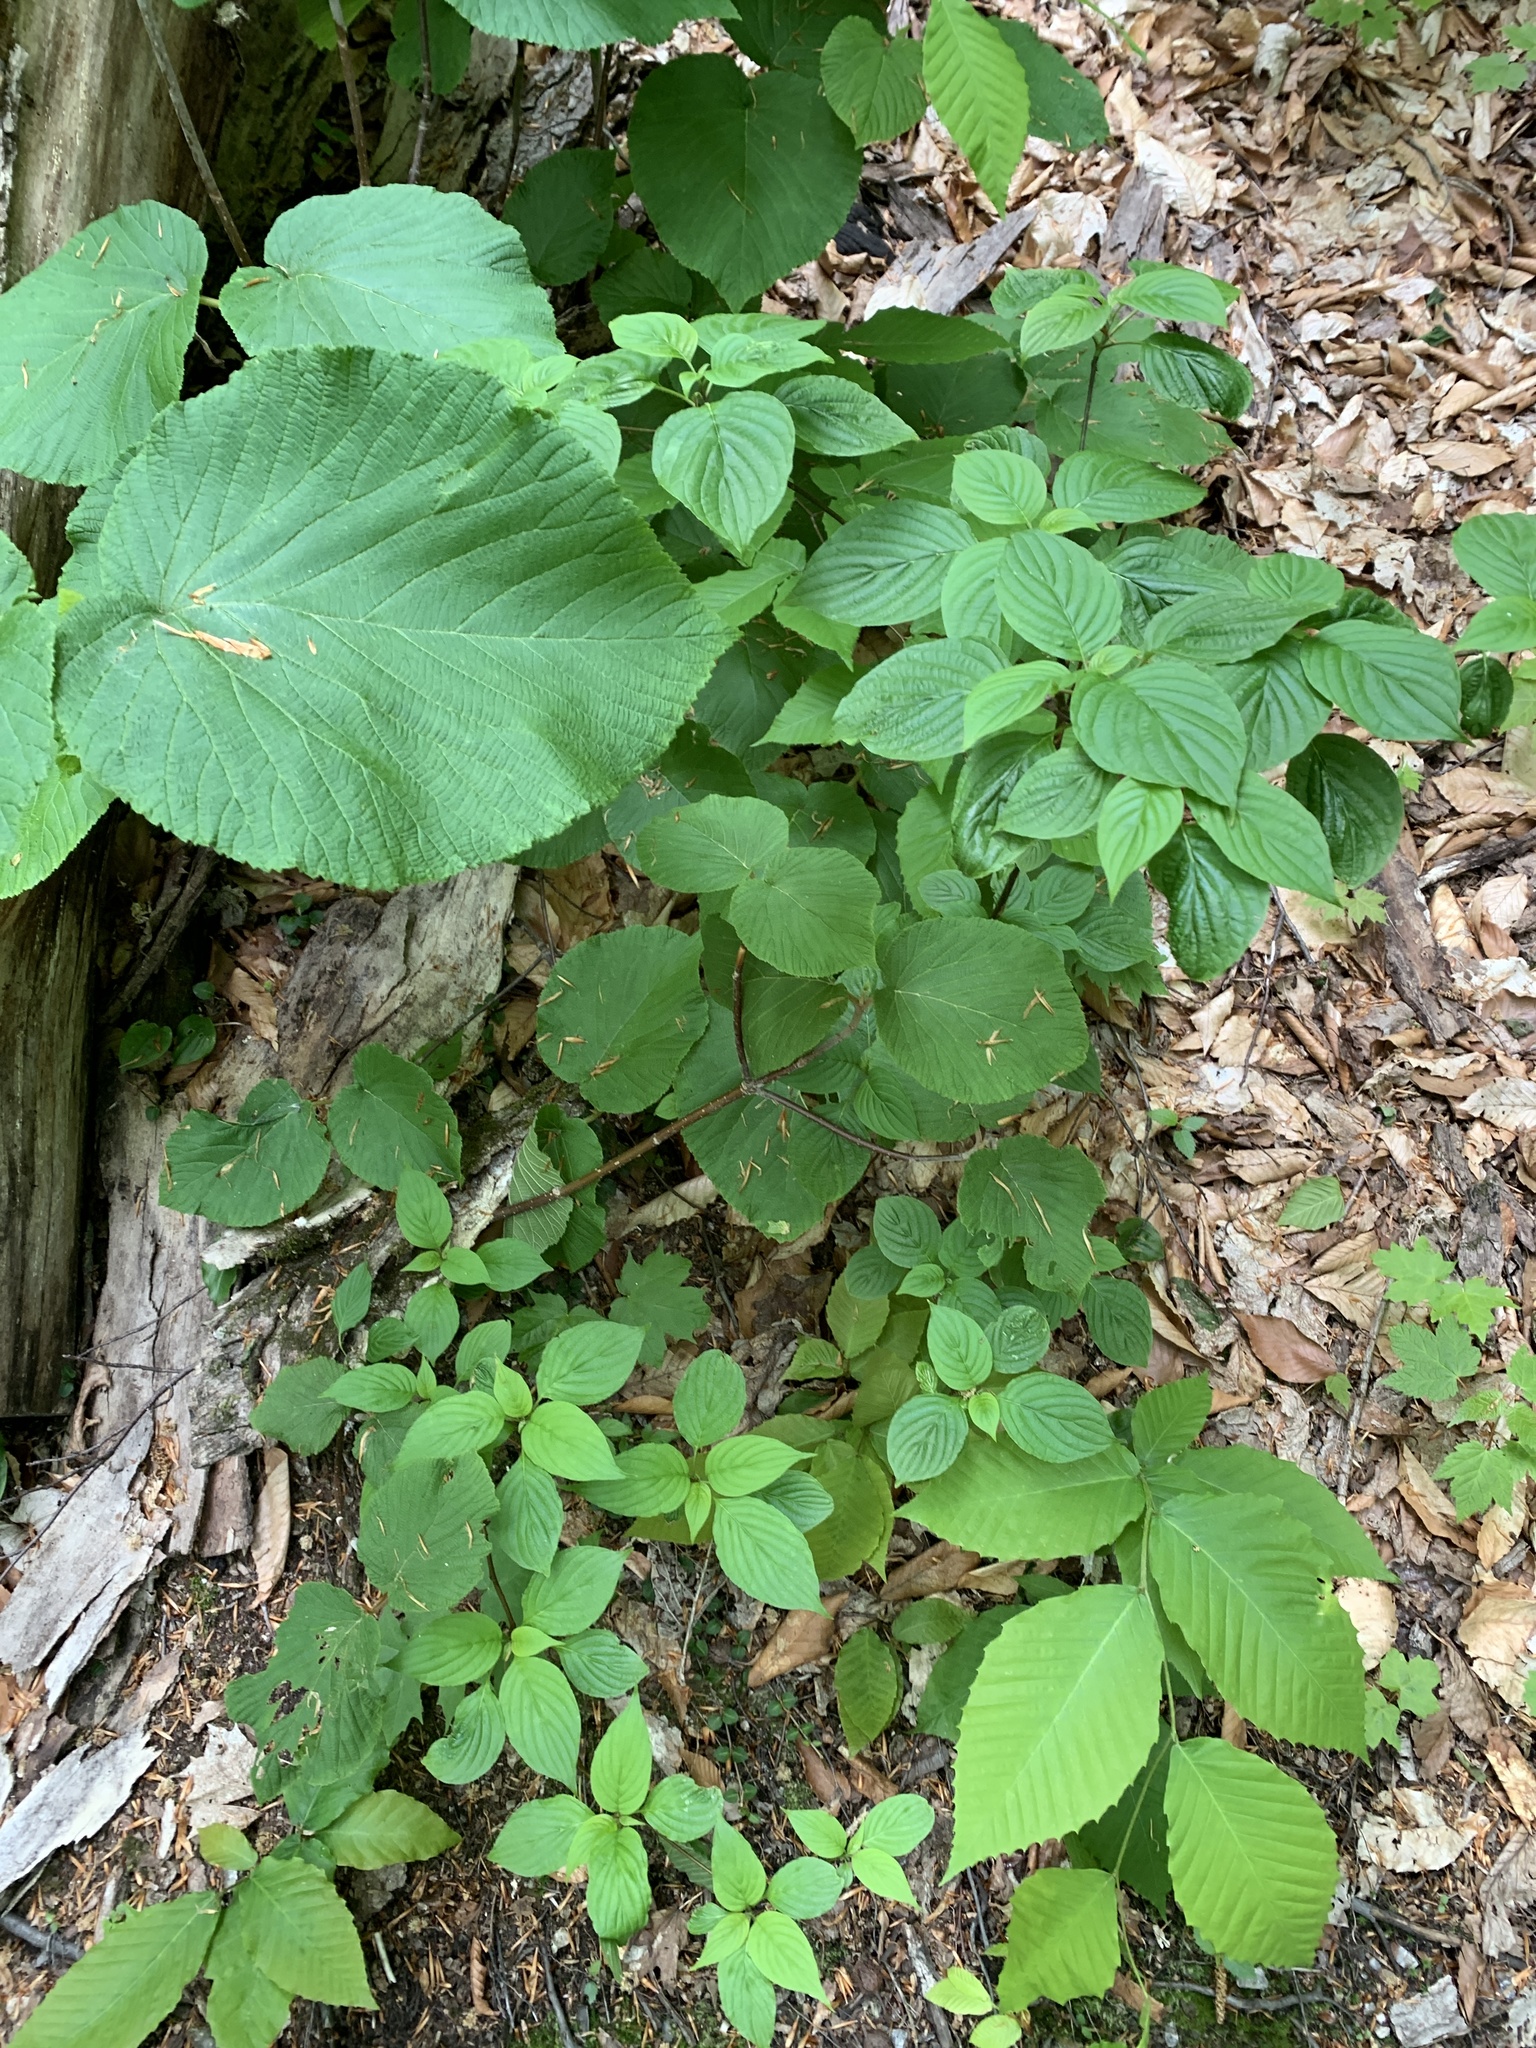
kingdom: Plantae
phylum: Tracheophyta
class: Magnoliopsida
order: Cornales
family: Cornaceae
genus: Cornus
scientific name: Cornus alternifolia
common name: Pagoda dogwood
